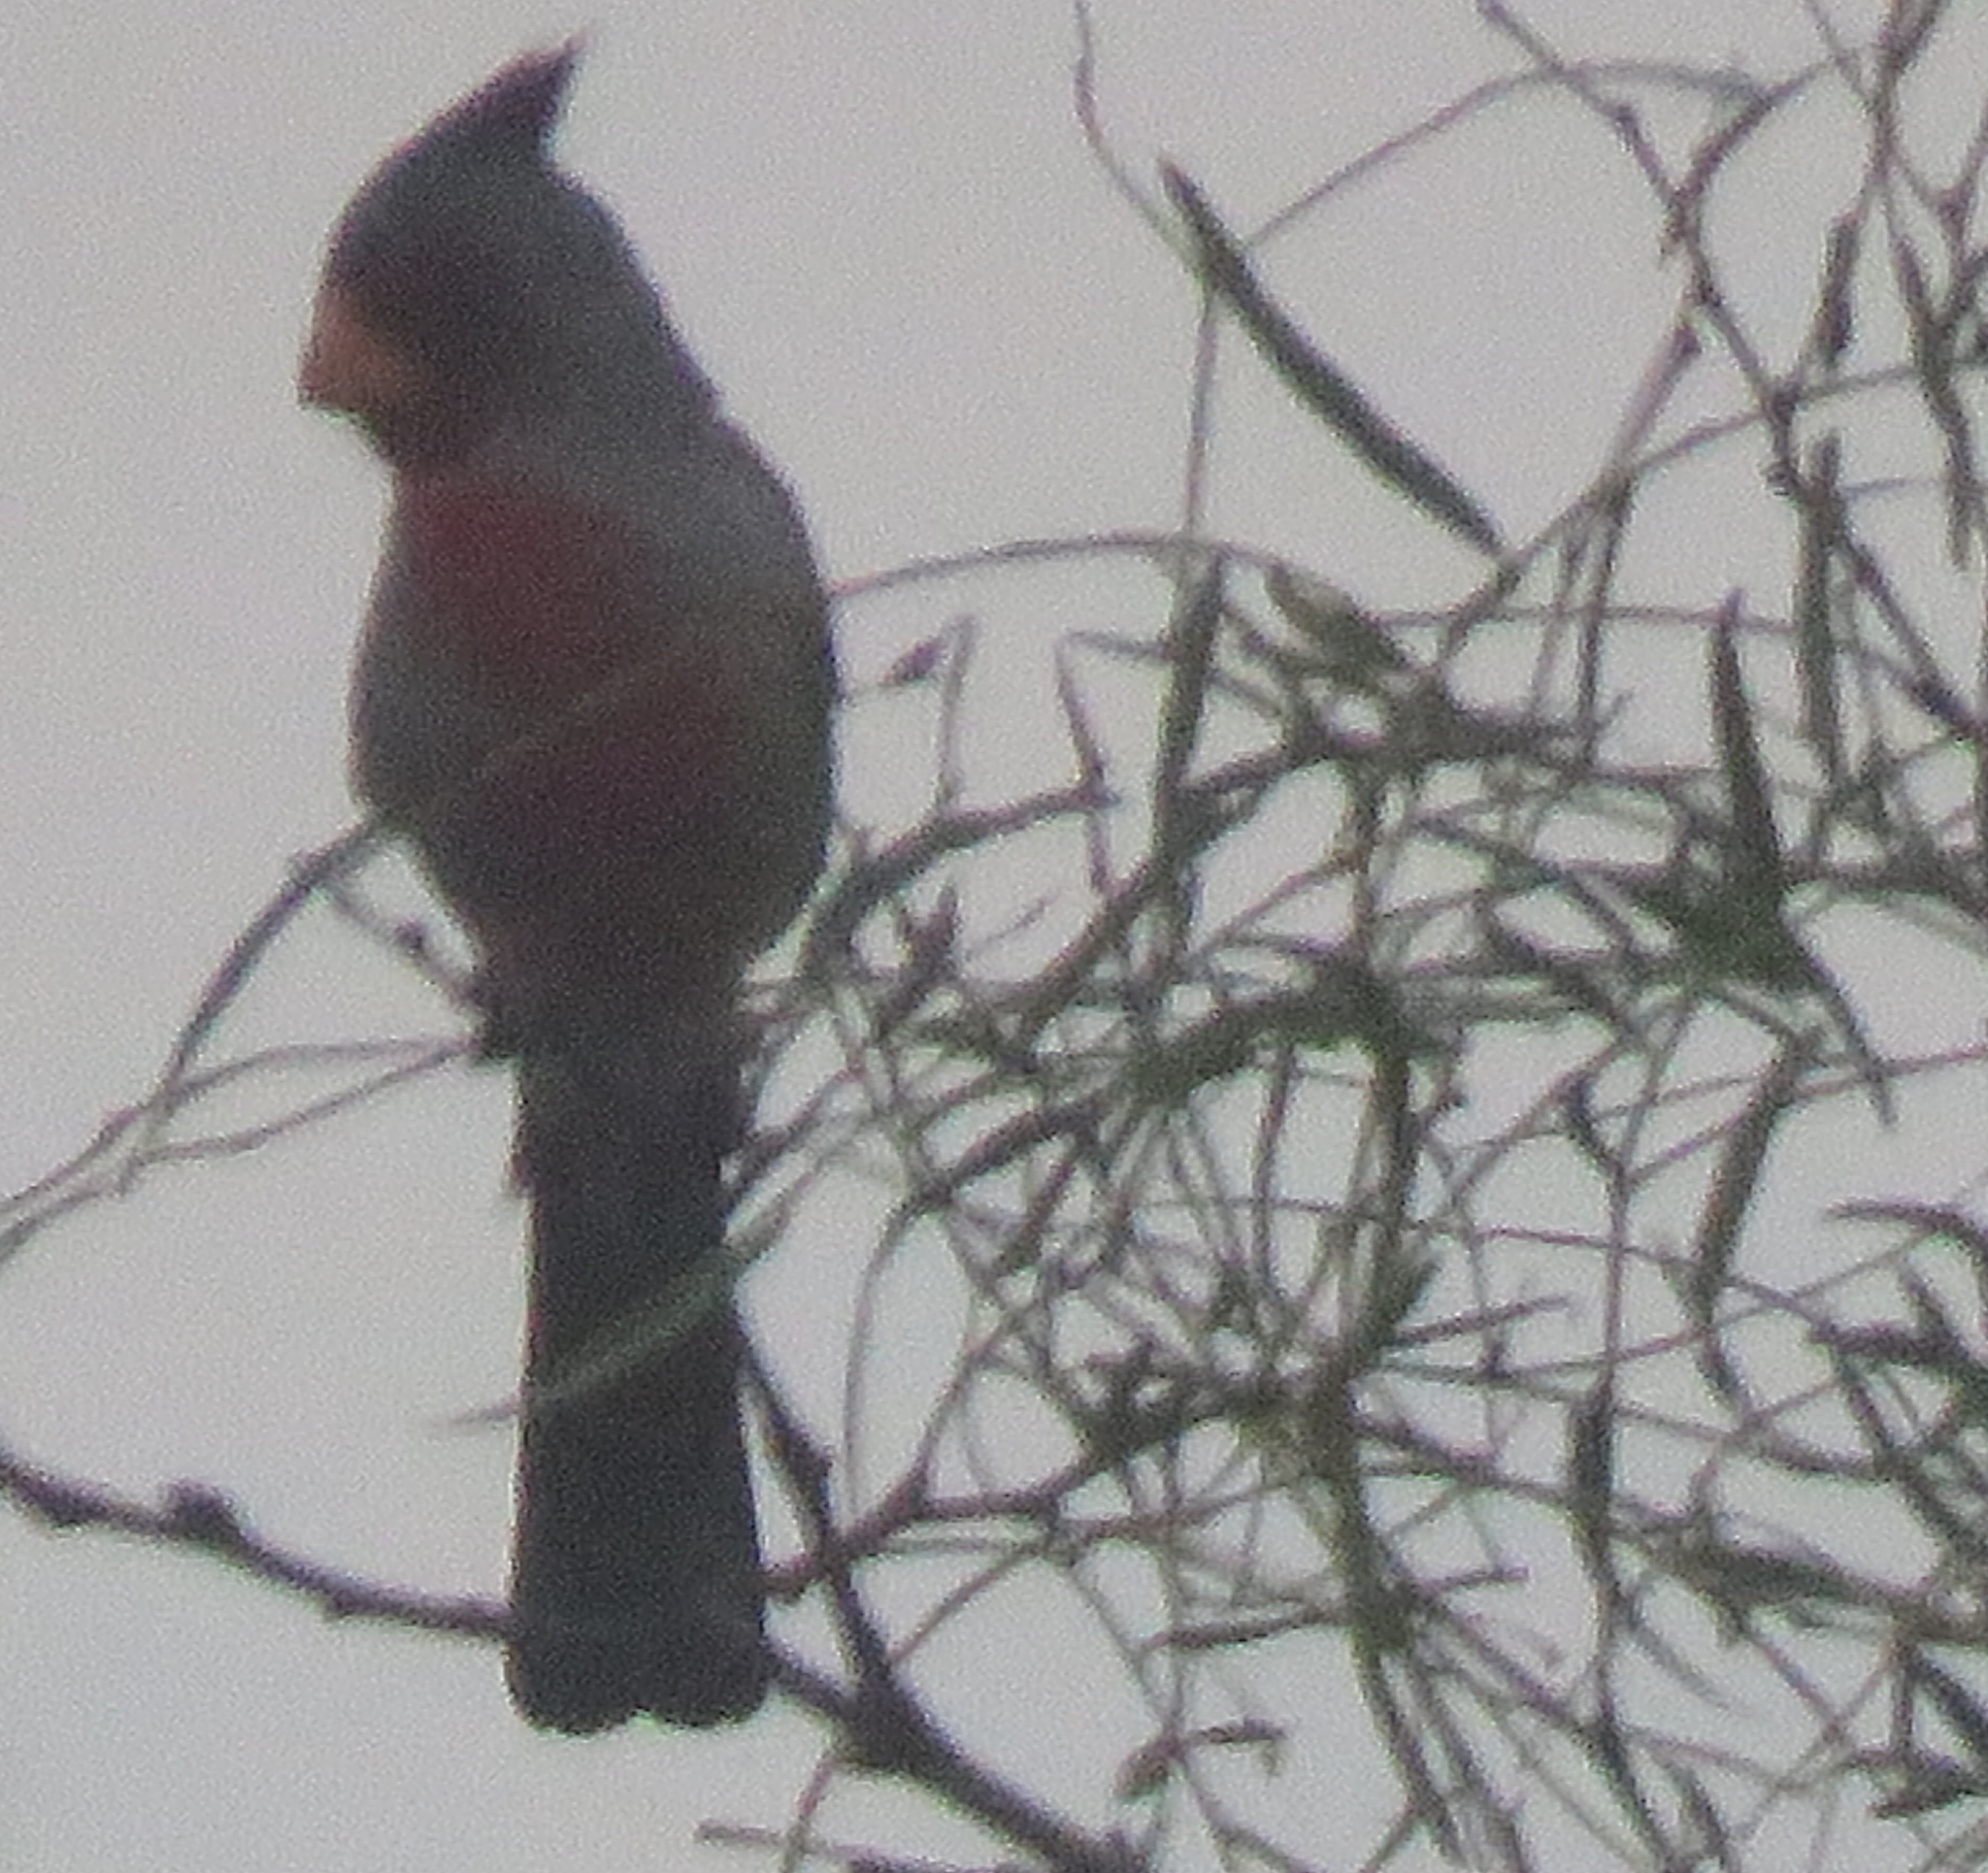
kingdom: Animalia
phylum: Chordata
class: Aves
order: Passeriformes
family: Cardinalidae
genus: Cardinalis
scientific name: Cardinalis sinuatus
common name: Pyrrhuloxia
